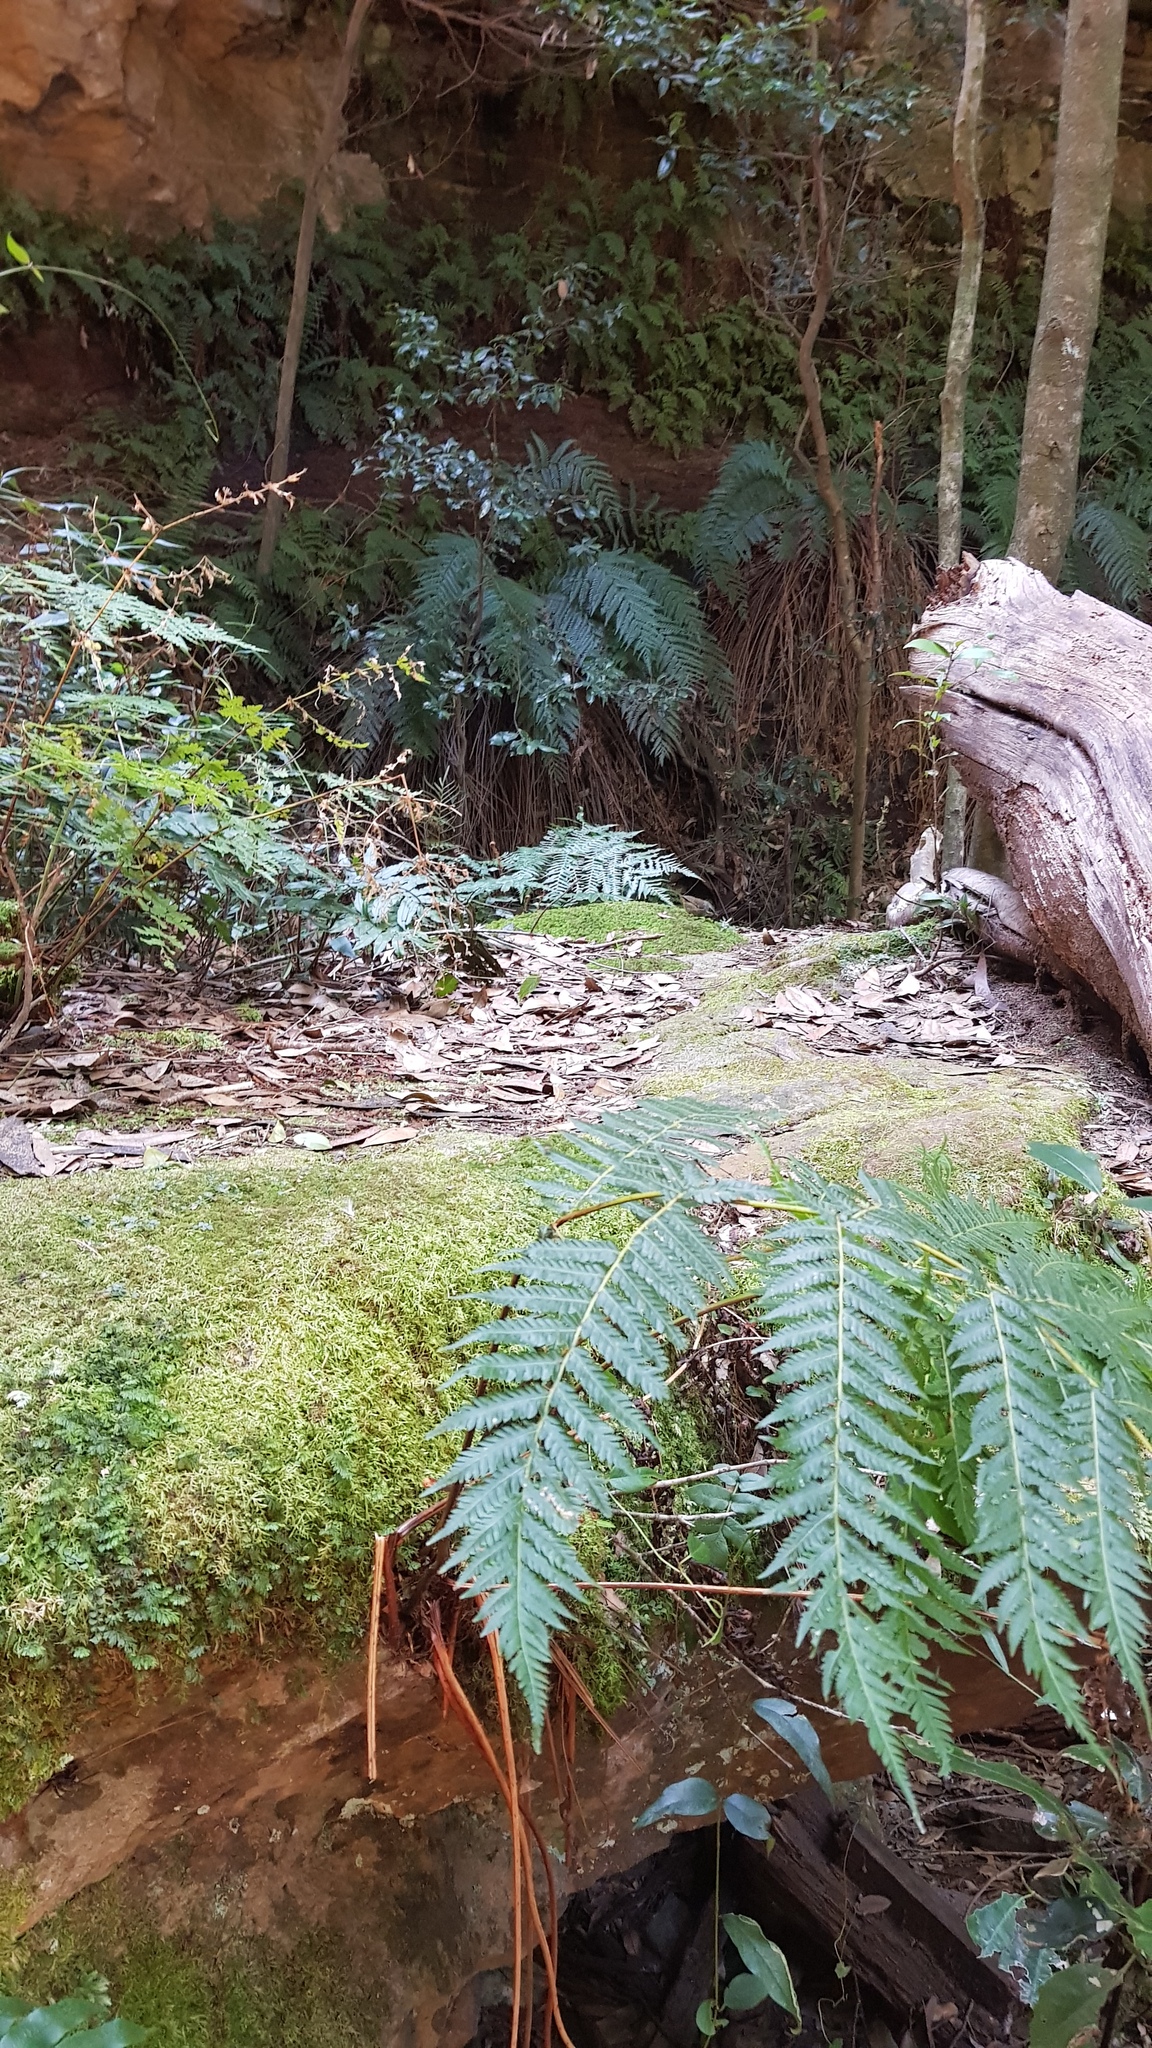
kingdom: Animalia
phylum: Chordata
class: Aves
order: Passeriformes
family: Acanthizidae
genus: Sericornis
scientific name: Sericornis frontalis
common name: White-browed scrubwren
